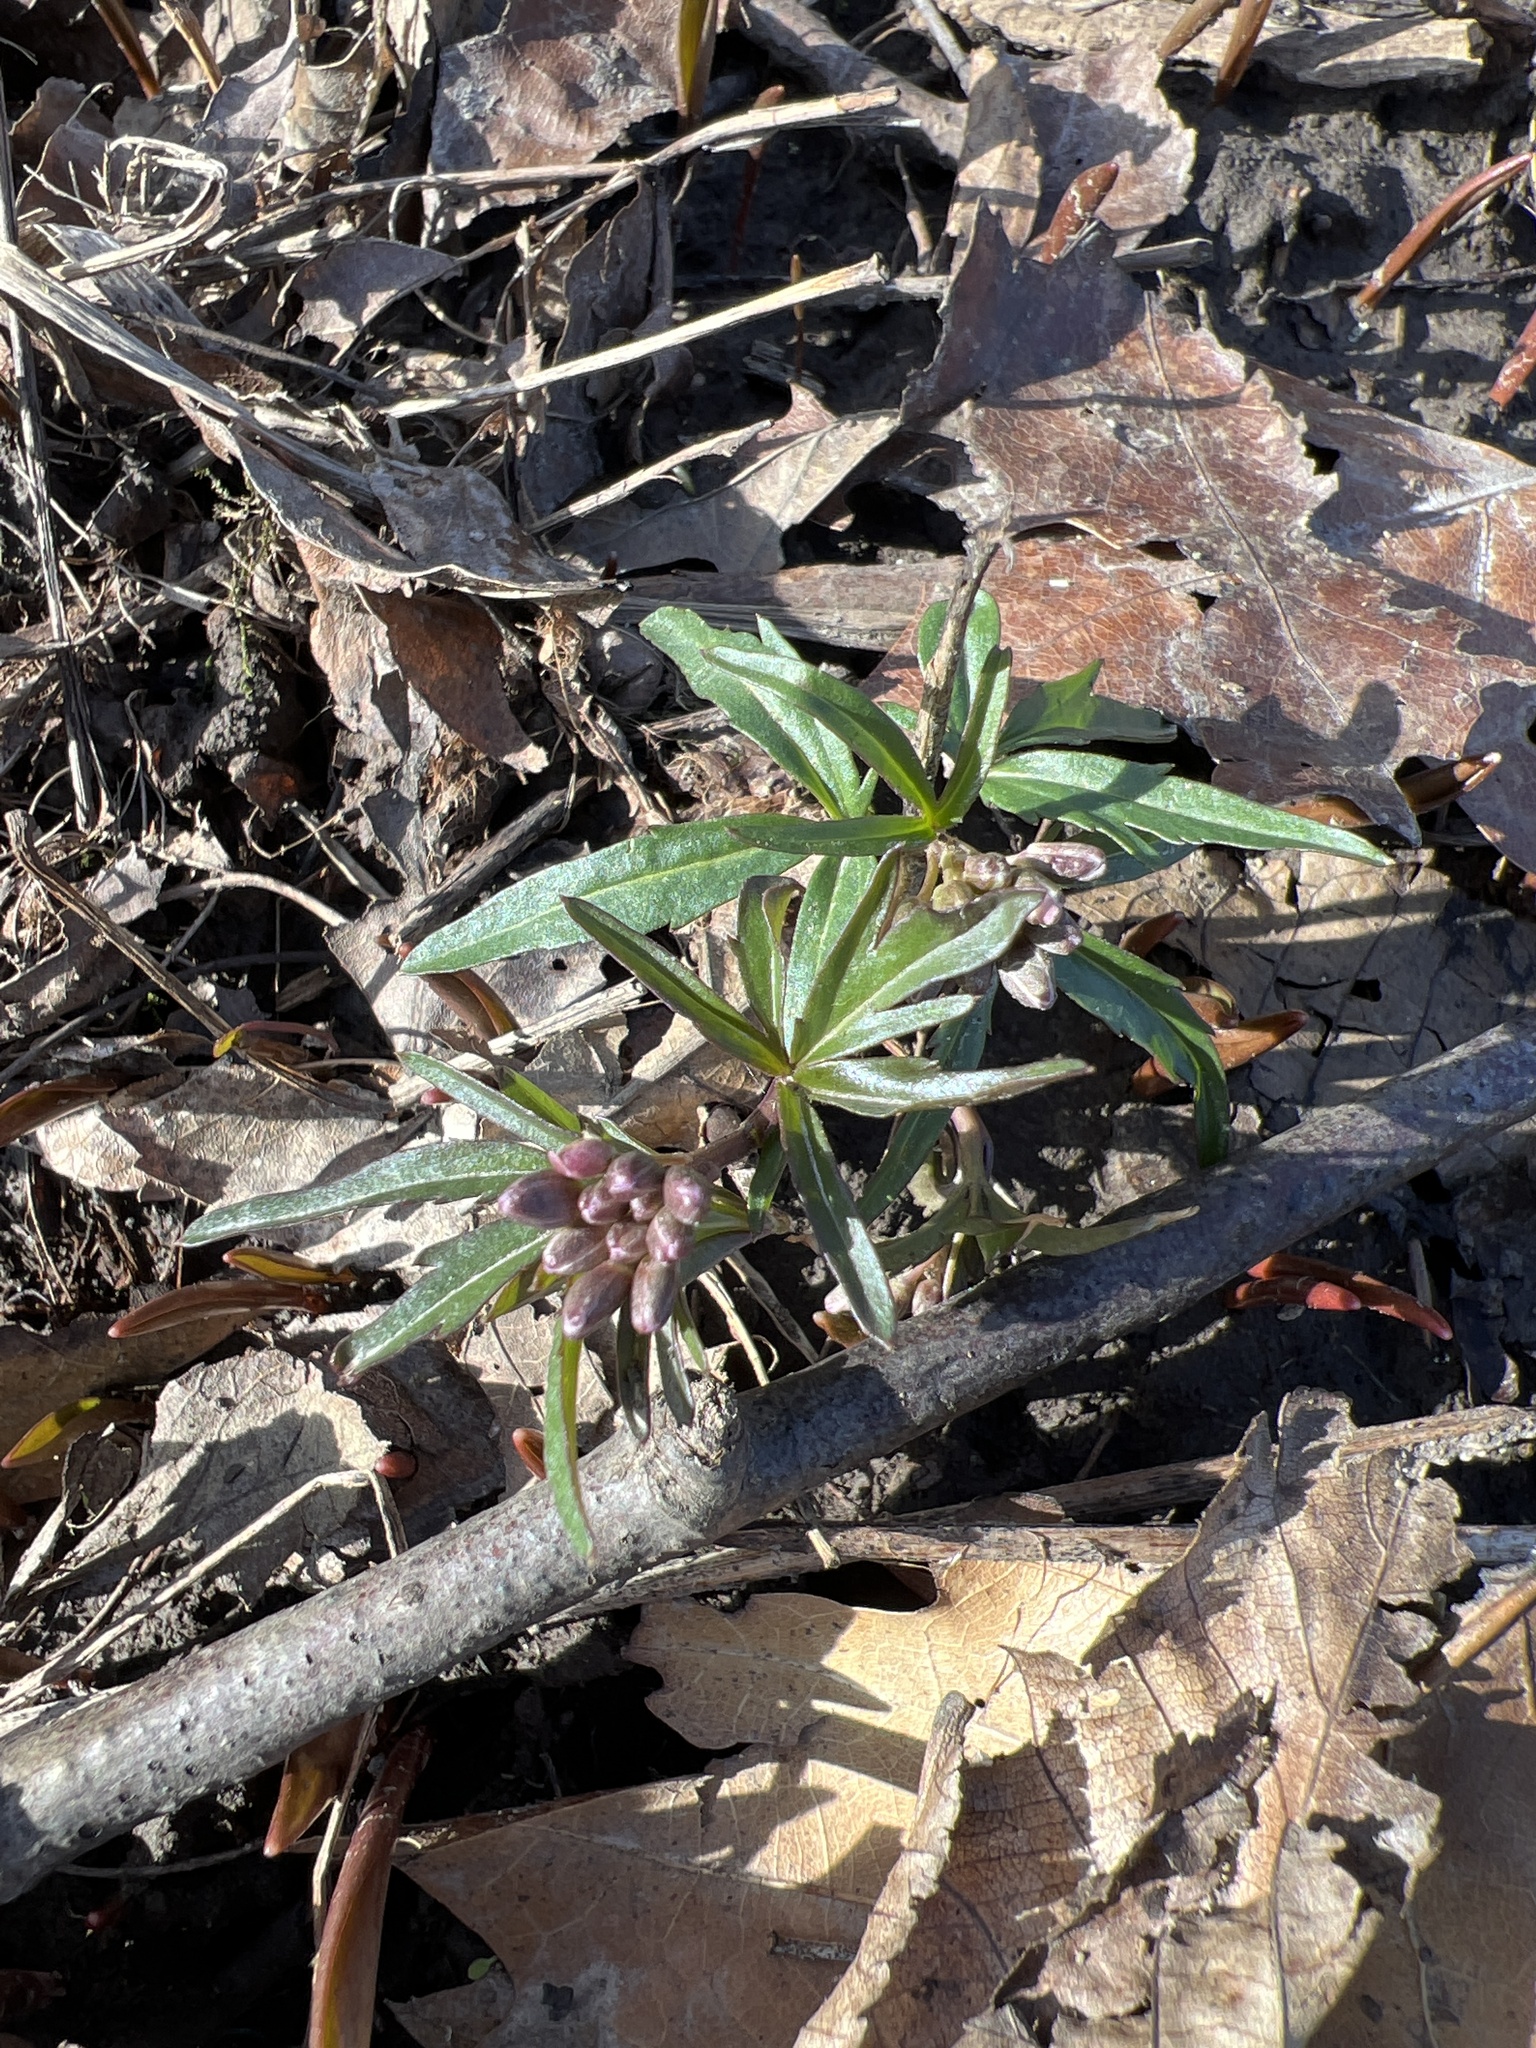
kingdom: Plantae
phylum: Tracheophyta
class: Magnoliopsida
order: Brassicales
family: Brassicaceae
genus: Cardamine
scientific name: Cardamine concatenata
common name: Cut-leaf toothcup
